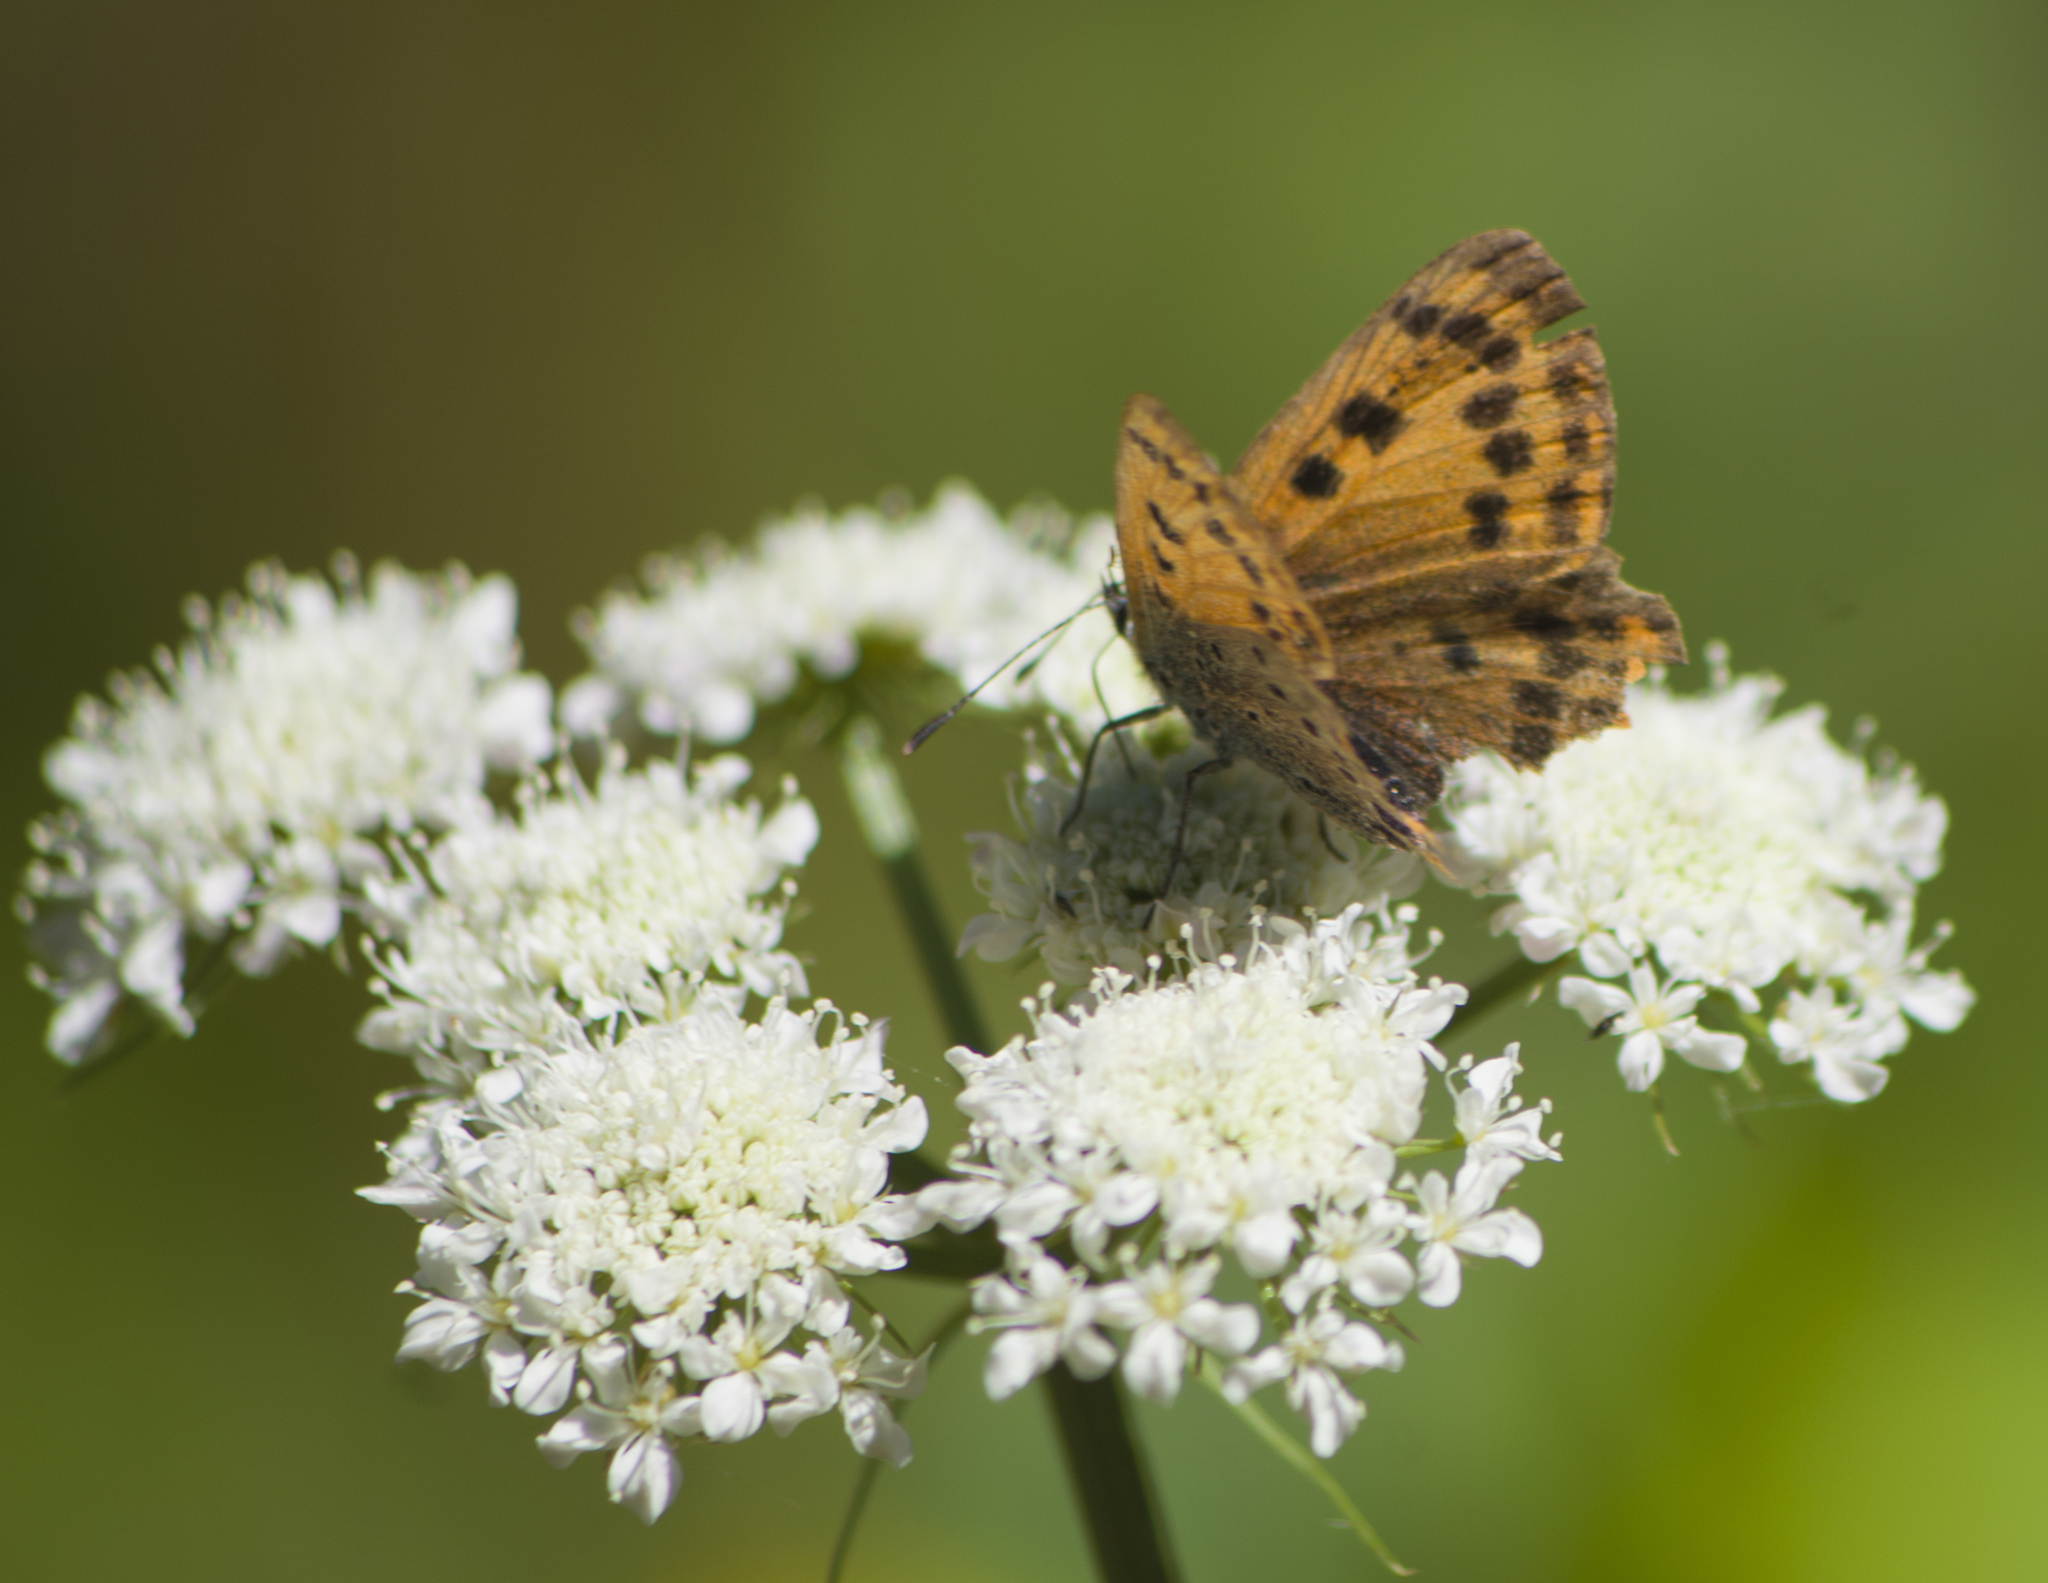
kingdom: Animalia
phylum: Arthropoda
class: Insecta
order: Lepidoptera
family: Lycaenidae
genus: Polyommatus
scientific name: Polyommatus ottomanus
